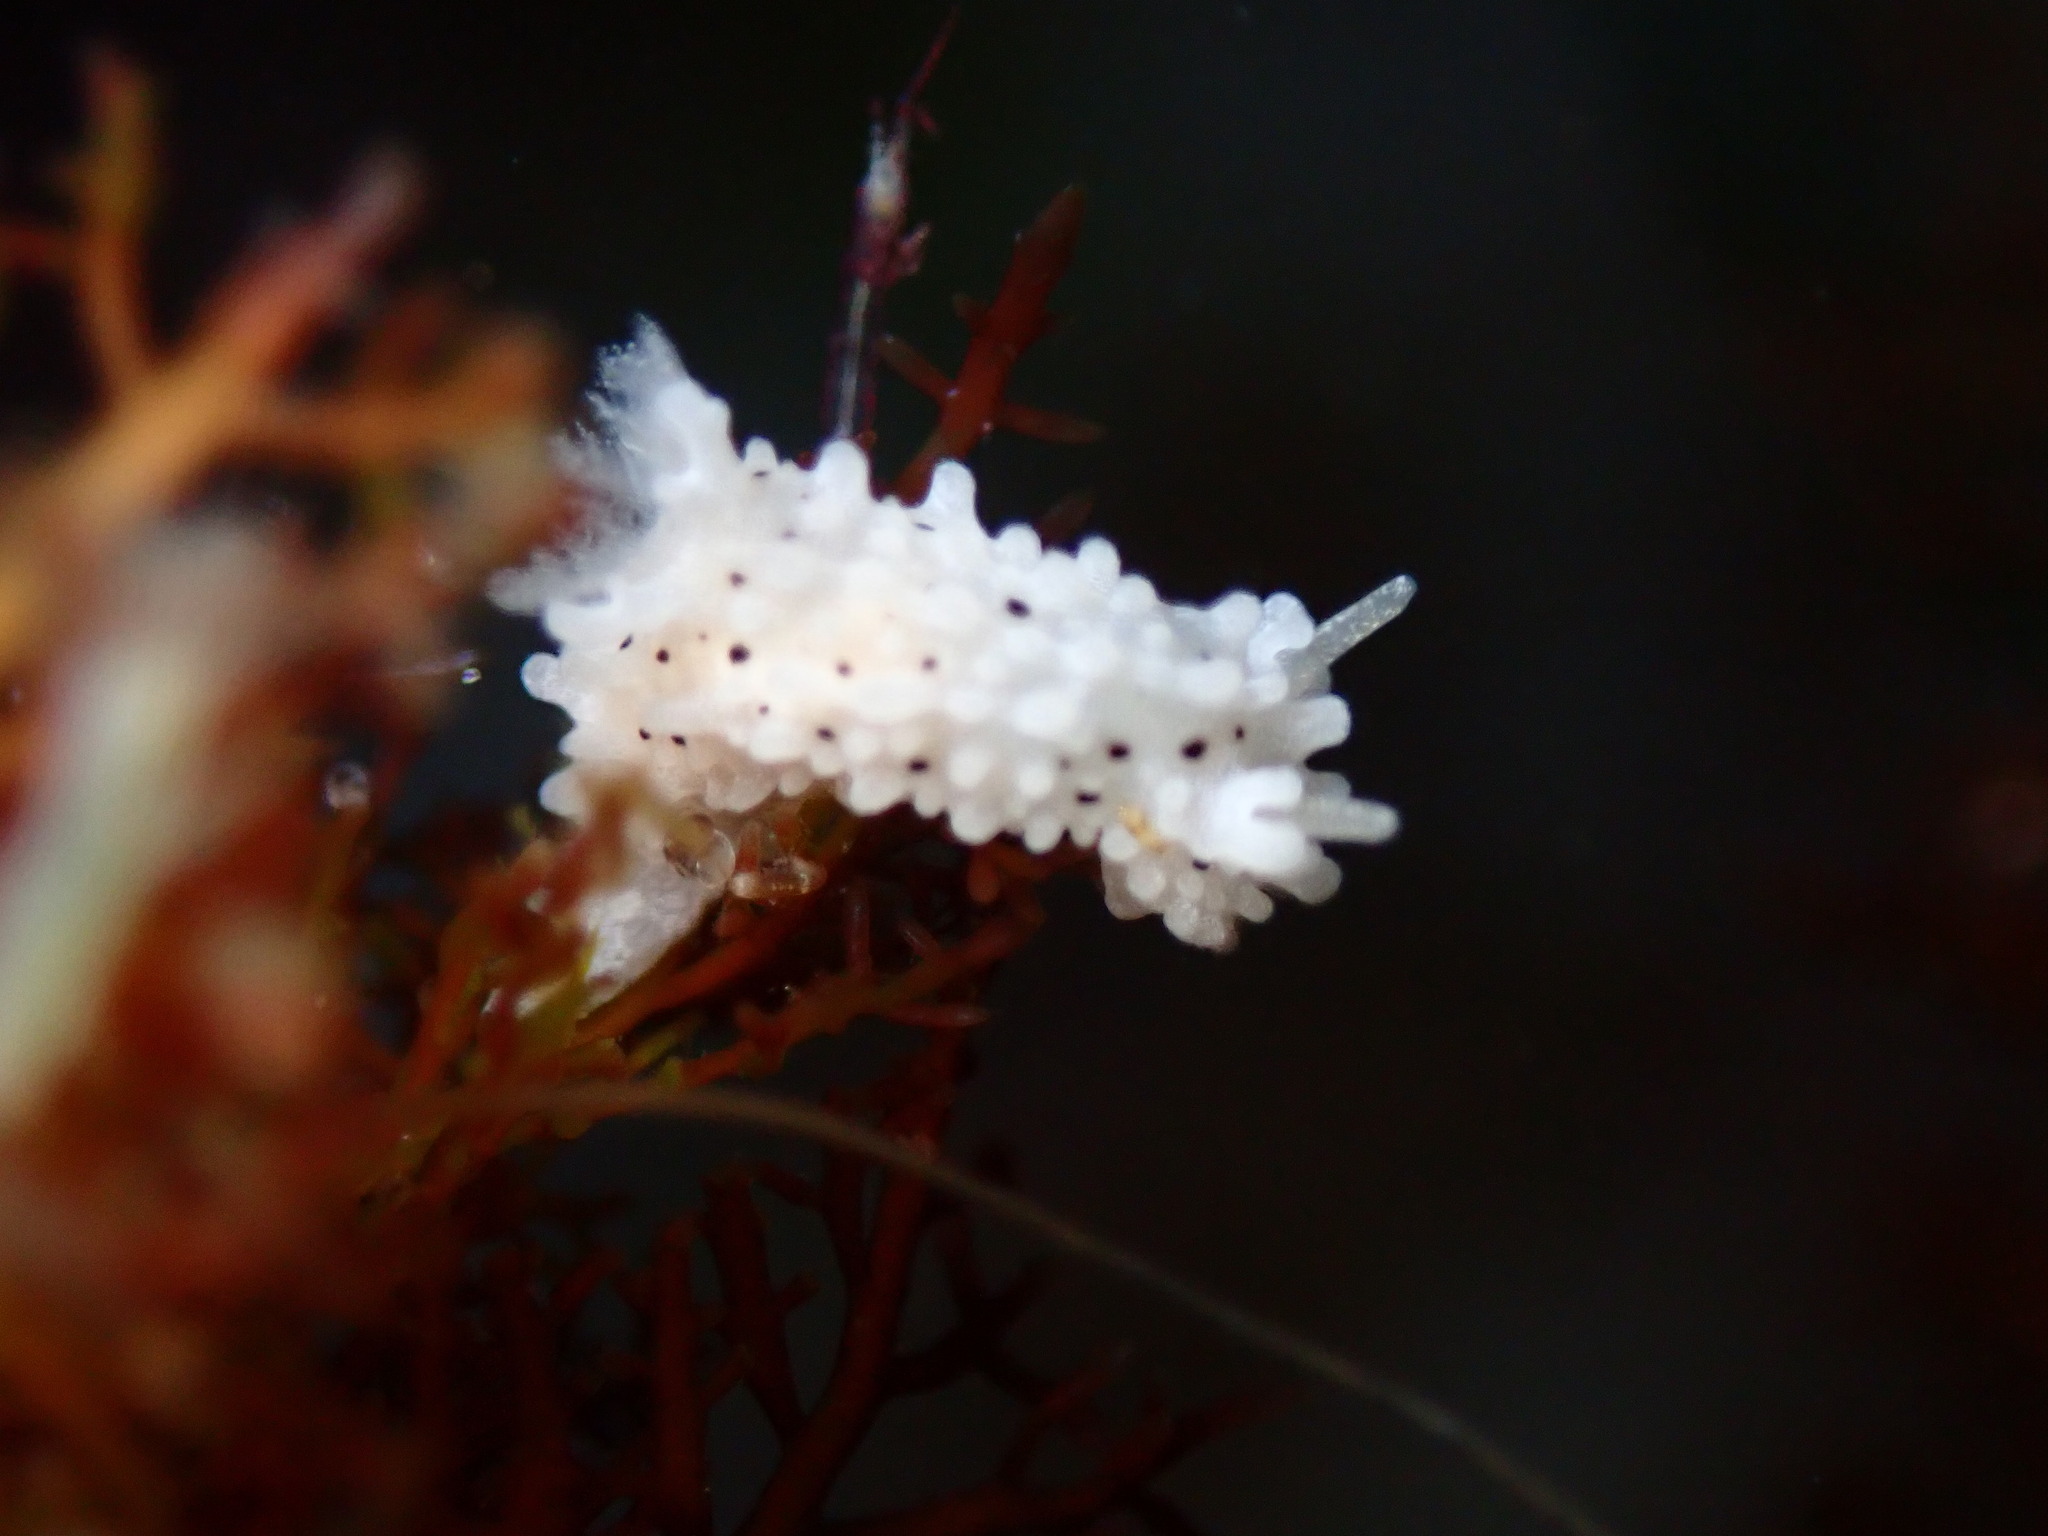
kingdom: Animalia
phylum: Mollusca
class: Gastropoda
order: Nudibranchia
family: Aegiridae
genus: Aegires
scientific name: Aegires albopunctatus
